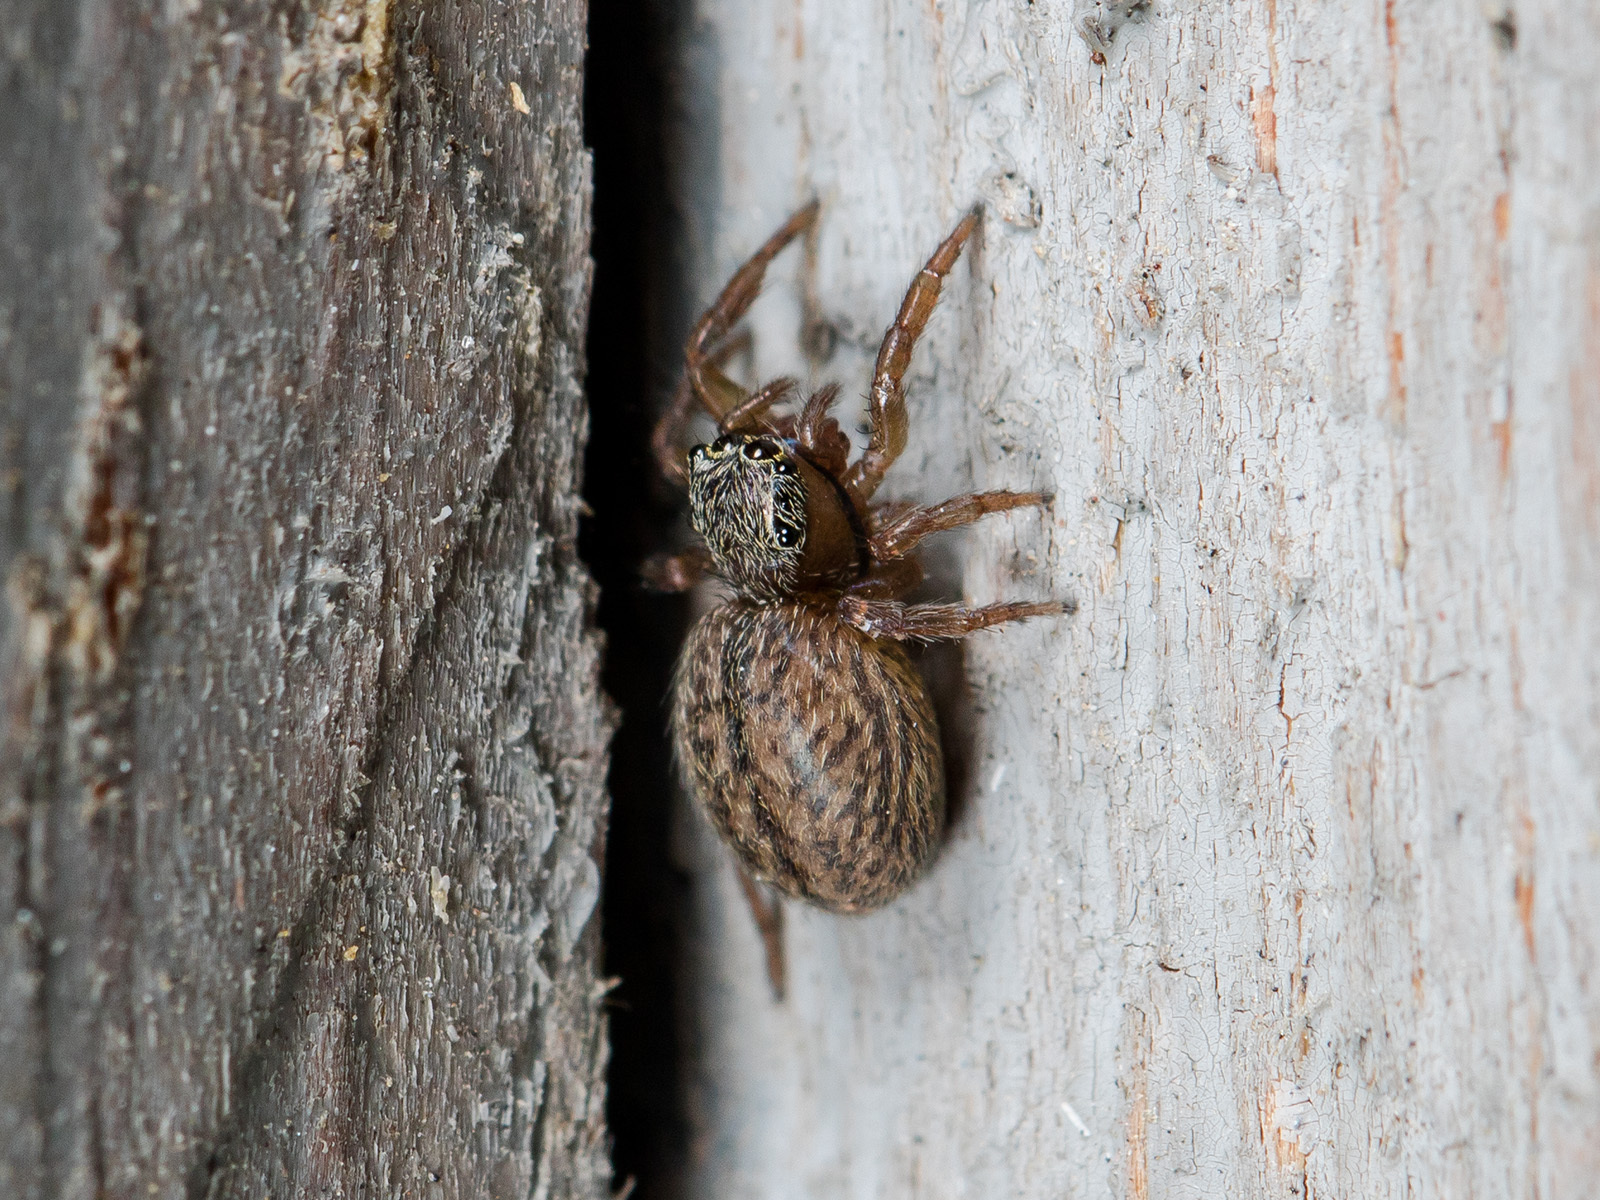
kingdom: Animalia
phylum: Arthropoda
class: Arachnida
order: Araneae
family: Salticidae
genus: Euophrys
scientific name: Euophrys frontalis
